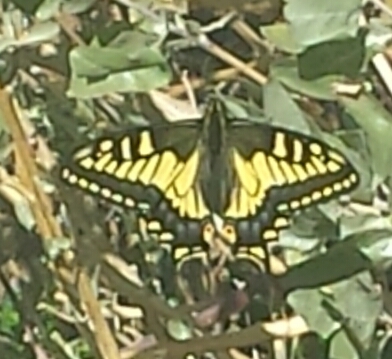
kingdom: Animalia
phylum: Arthropoda
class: Insecta
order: Lepidoptera
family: Papilionidae
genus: Papilio
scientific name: Papilio zelicaon
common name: Anise swallowtail
